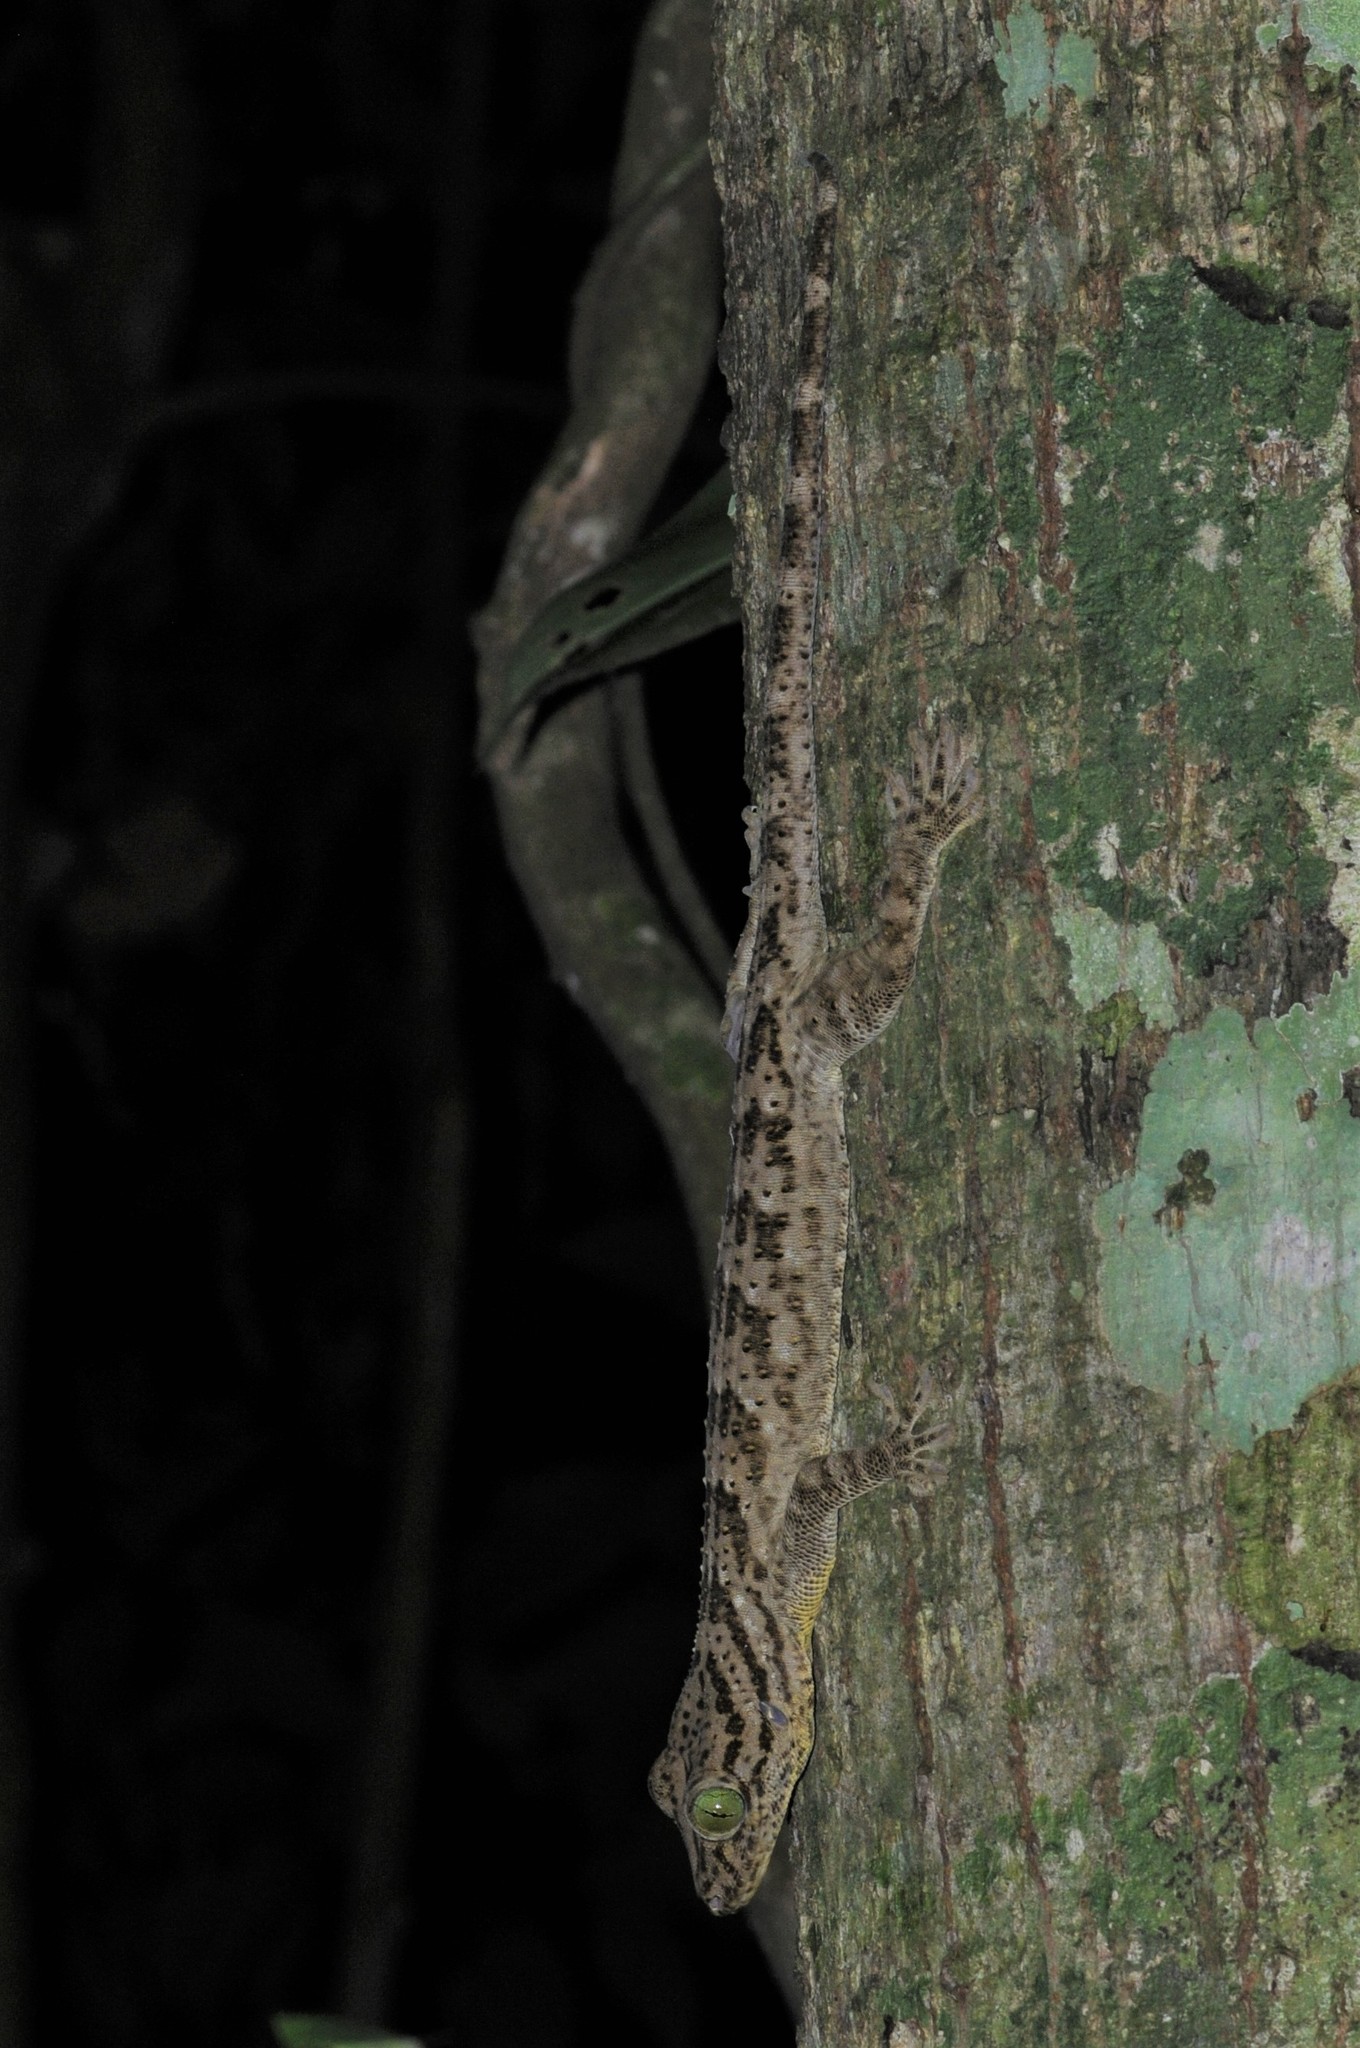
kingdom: Animalia
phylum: Chordata
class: Squamata
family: Gekkonidae
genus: Gekko
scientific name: Gekko smithii
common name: Large forest gecko
